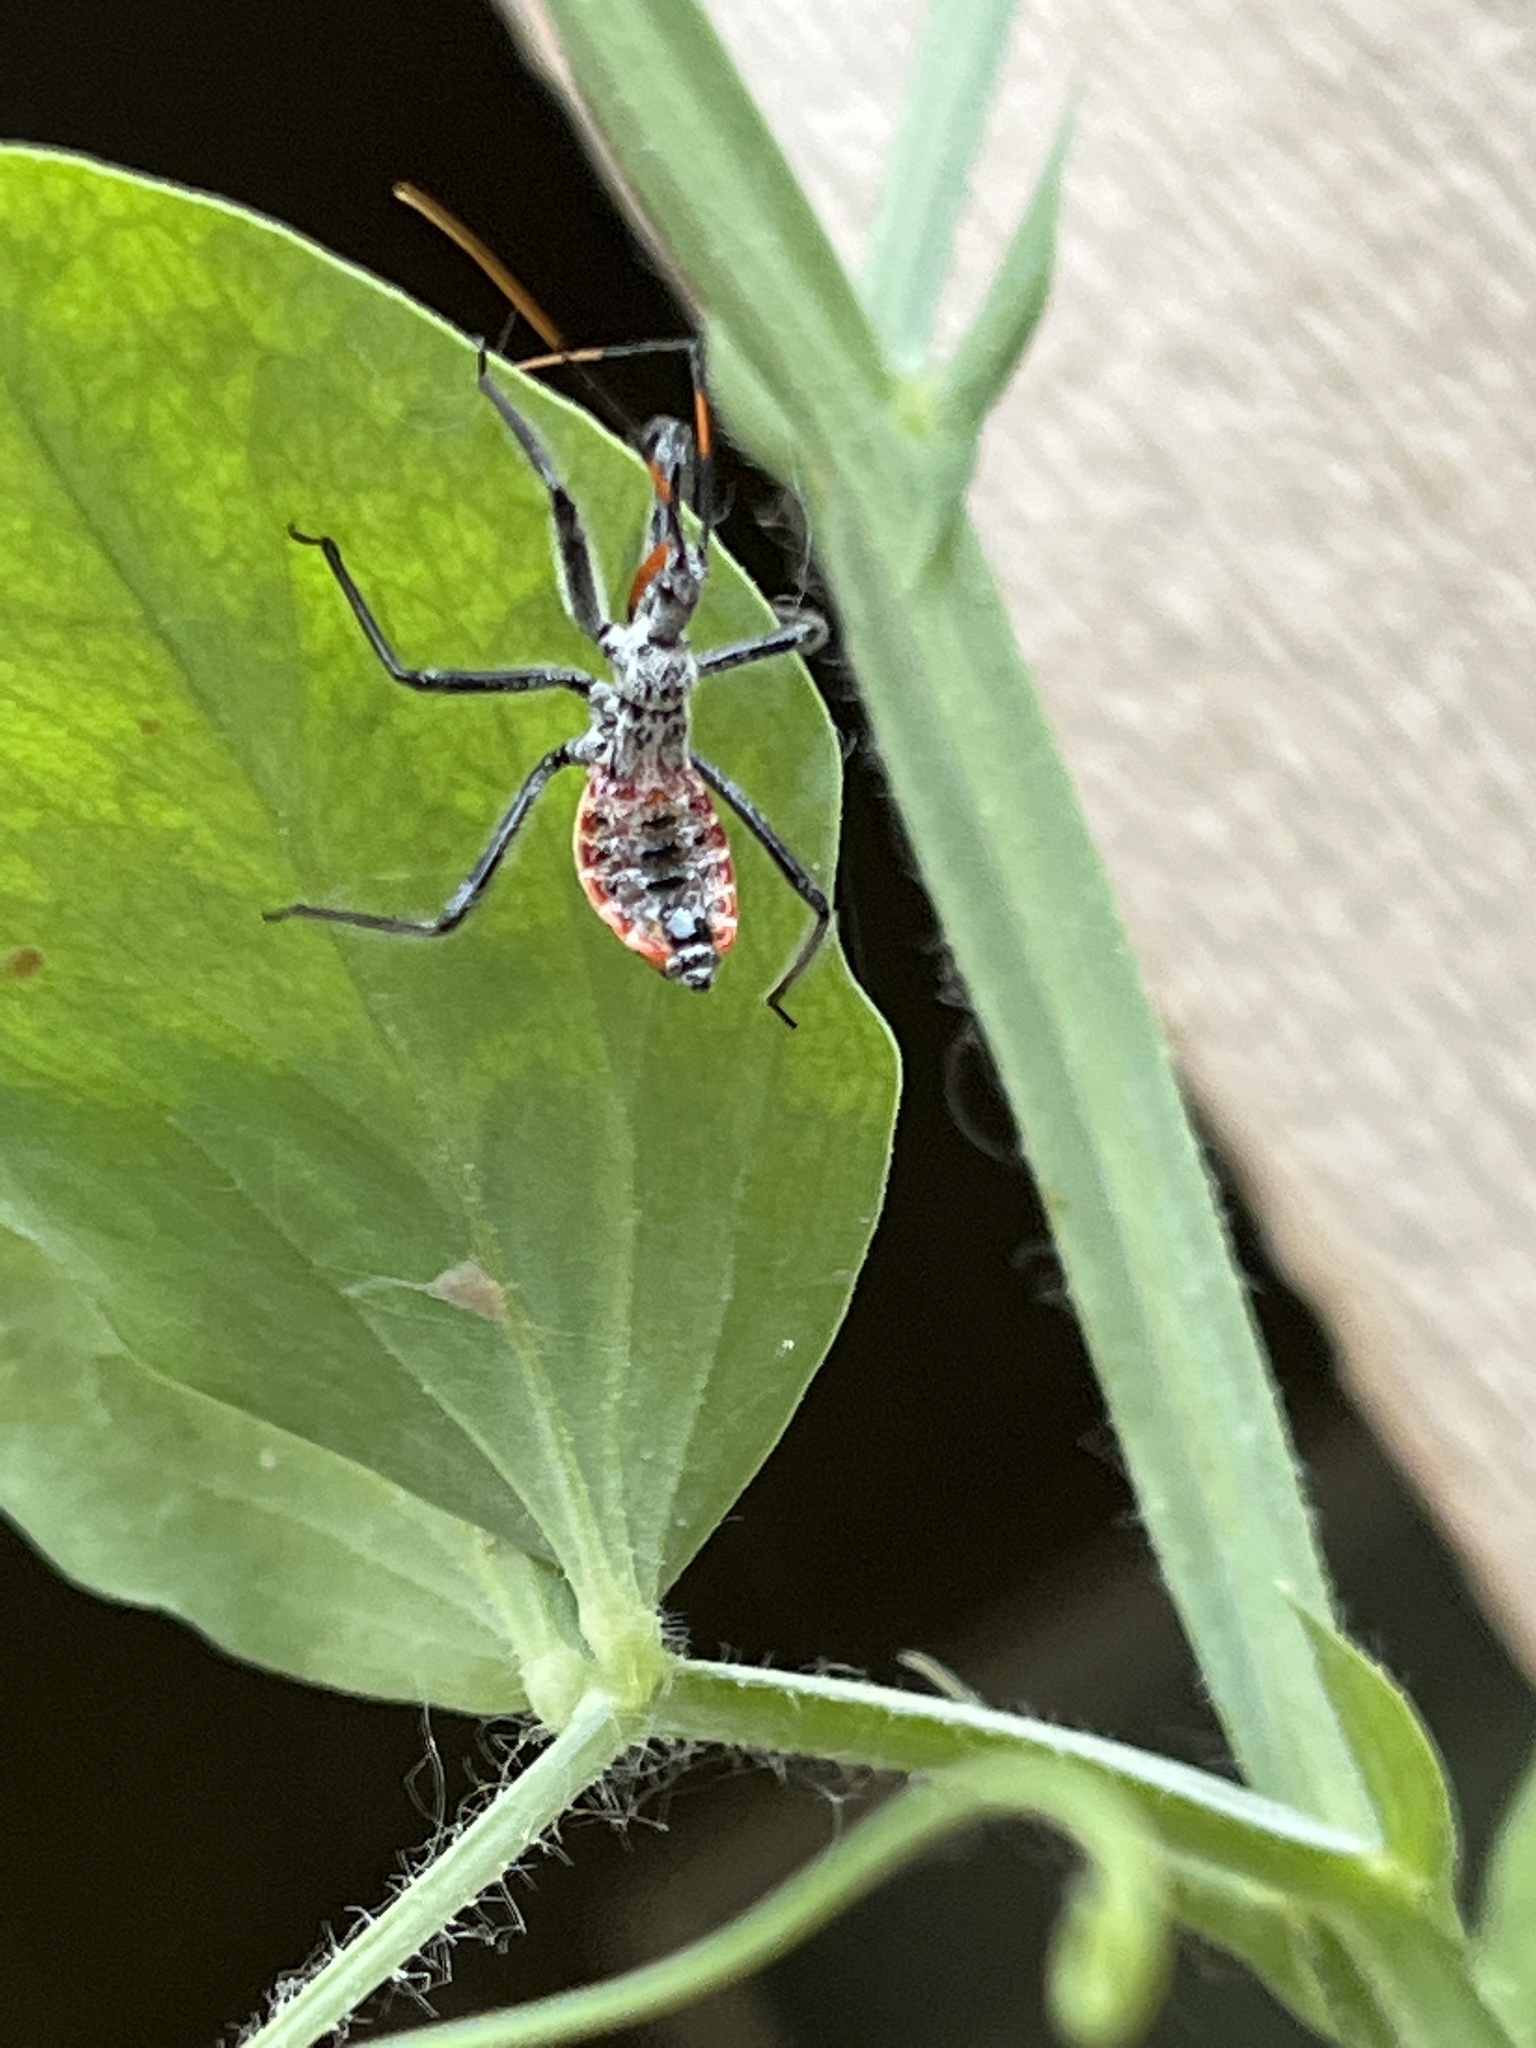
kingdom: Animalia
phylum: Arthropoda
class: Insecta
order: Hemiptera
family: Reduviidae
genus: Arilus
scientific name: Arilus cristatus
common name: North american wheel bug
